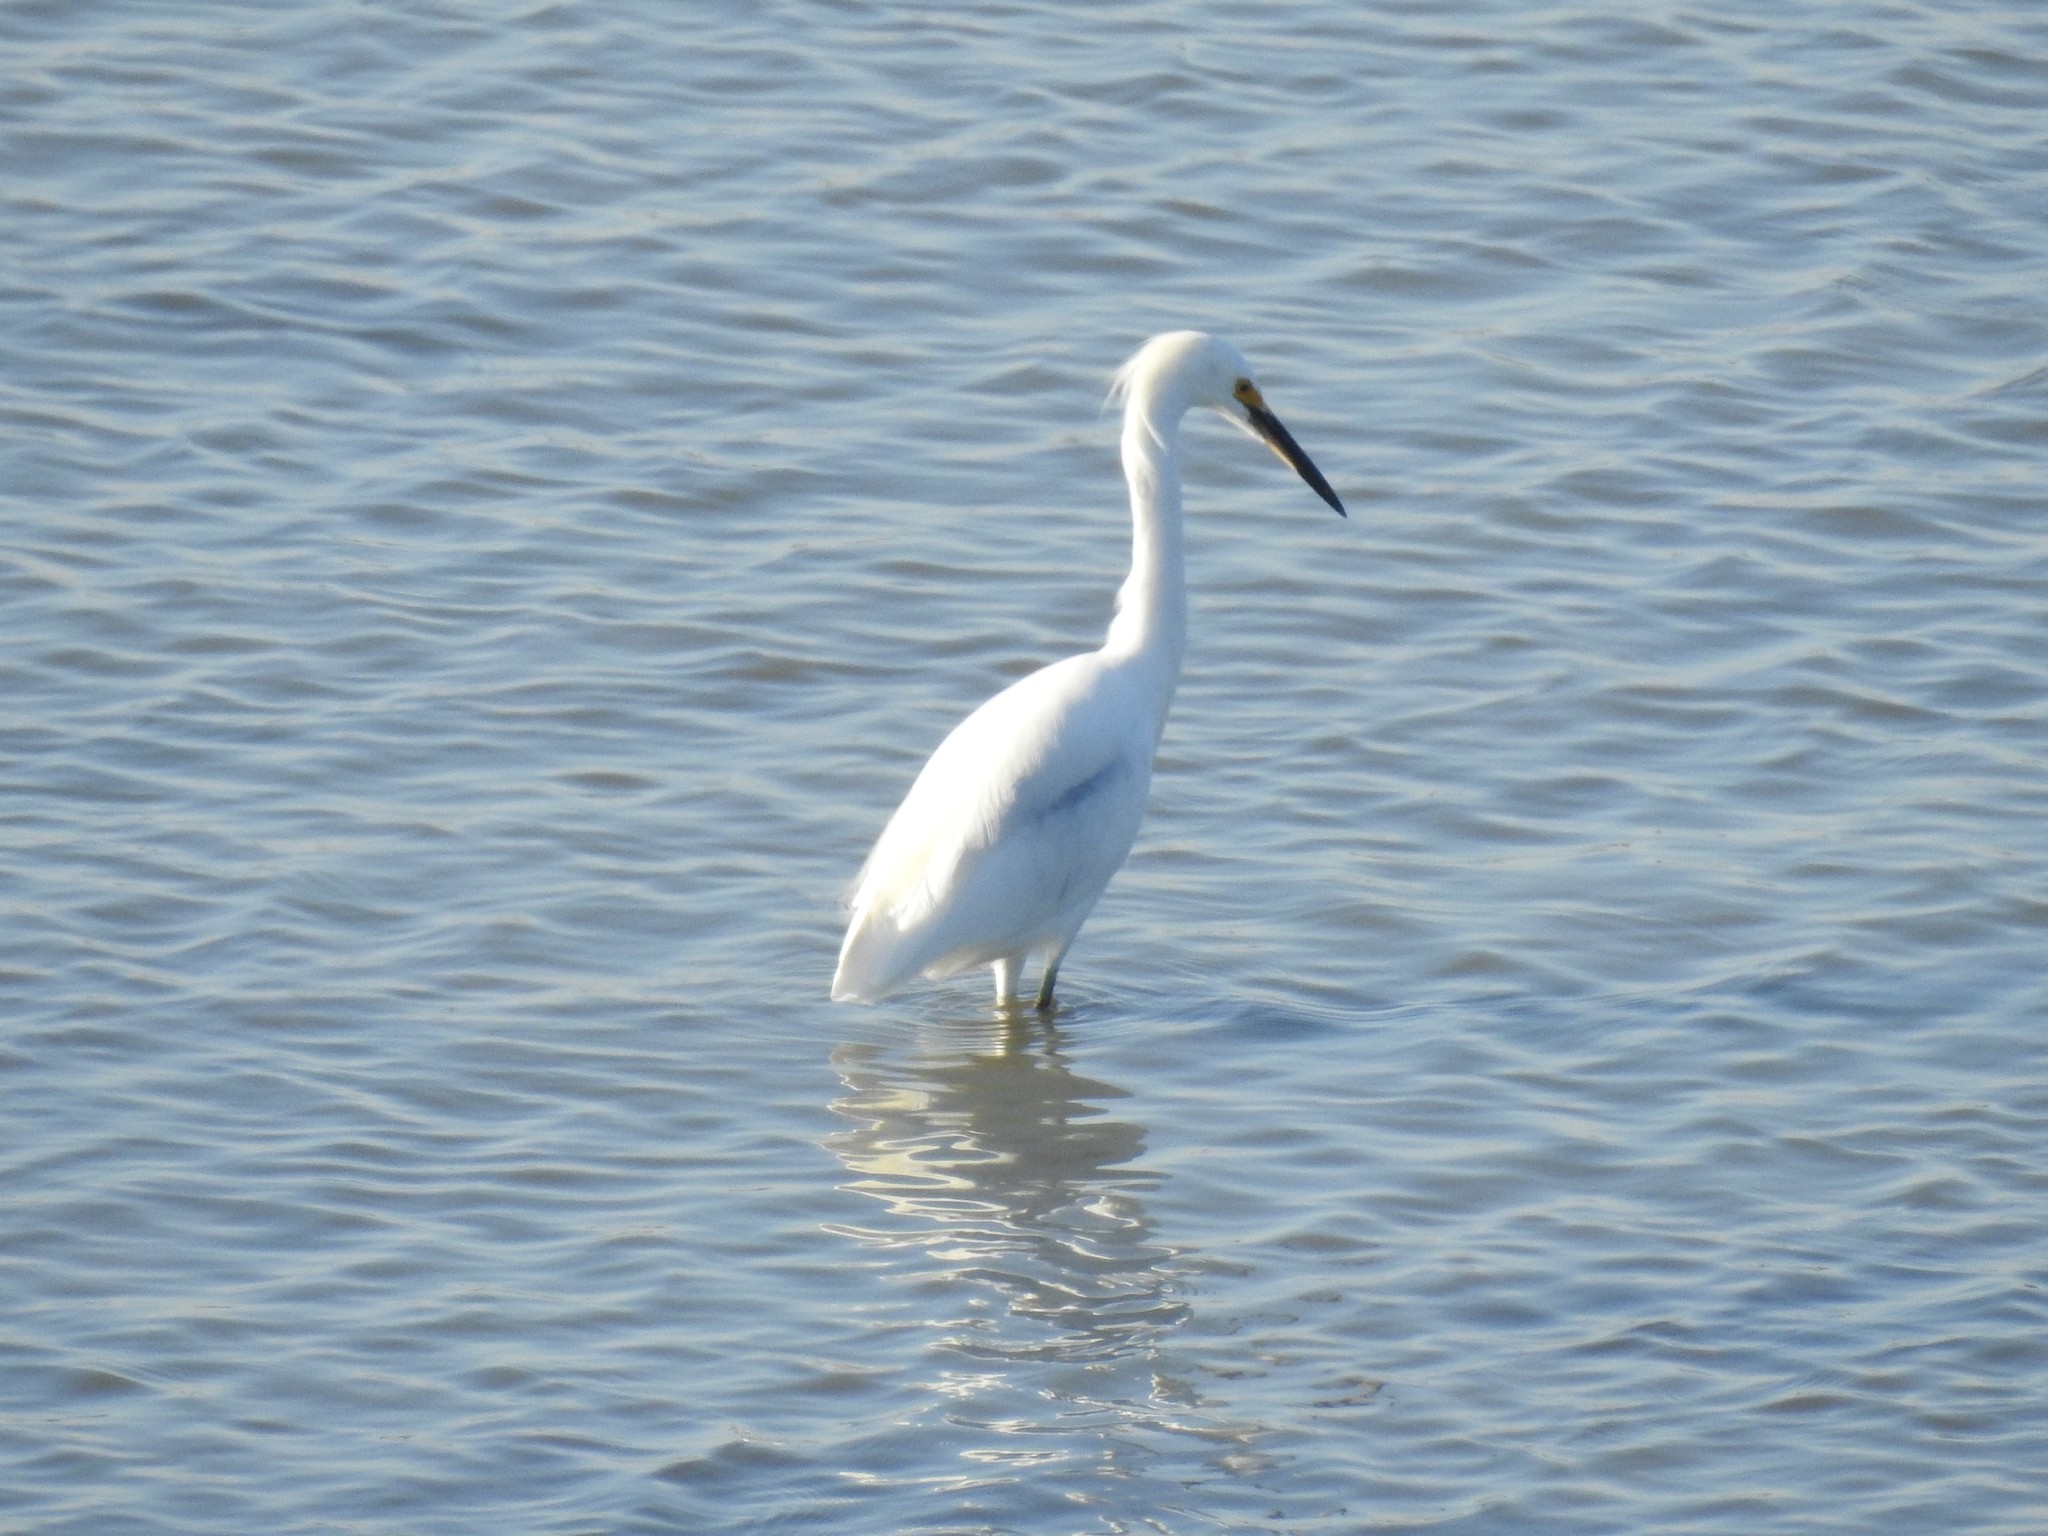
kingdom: Animalia
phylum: Chordata
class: Aves
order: Pelecaniformes
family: Ardeidae
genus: Egretta
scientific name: Egretta thula
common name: Snowy egret
